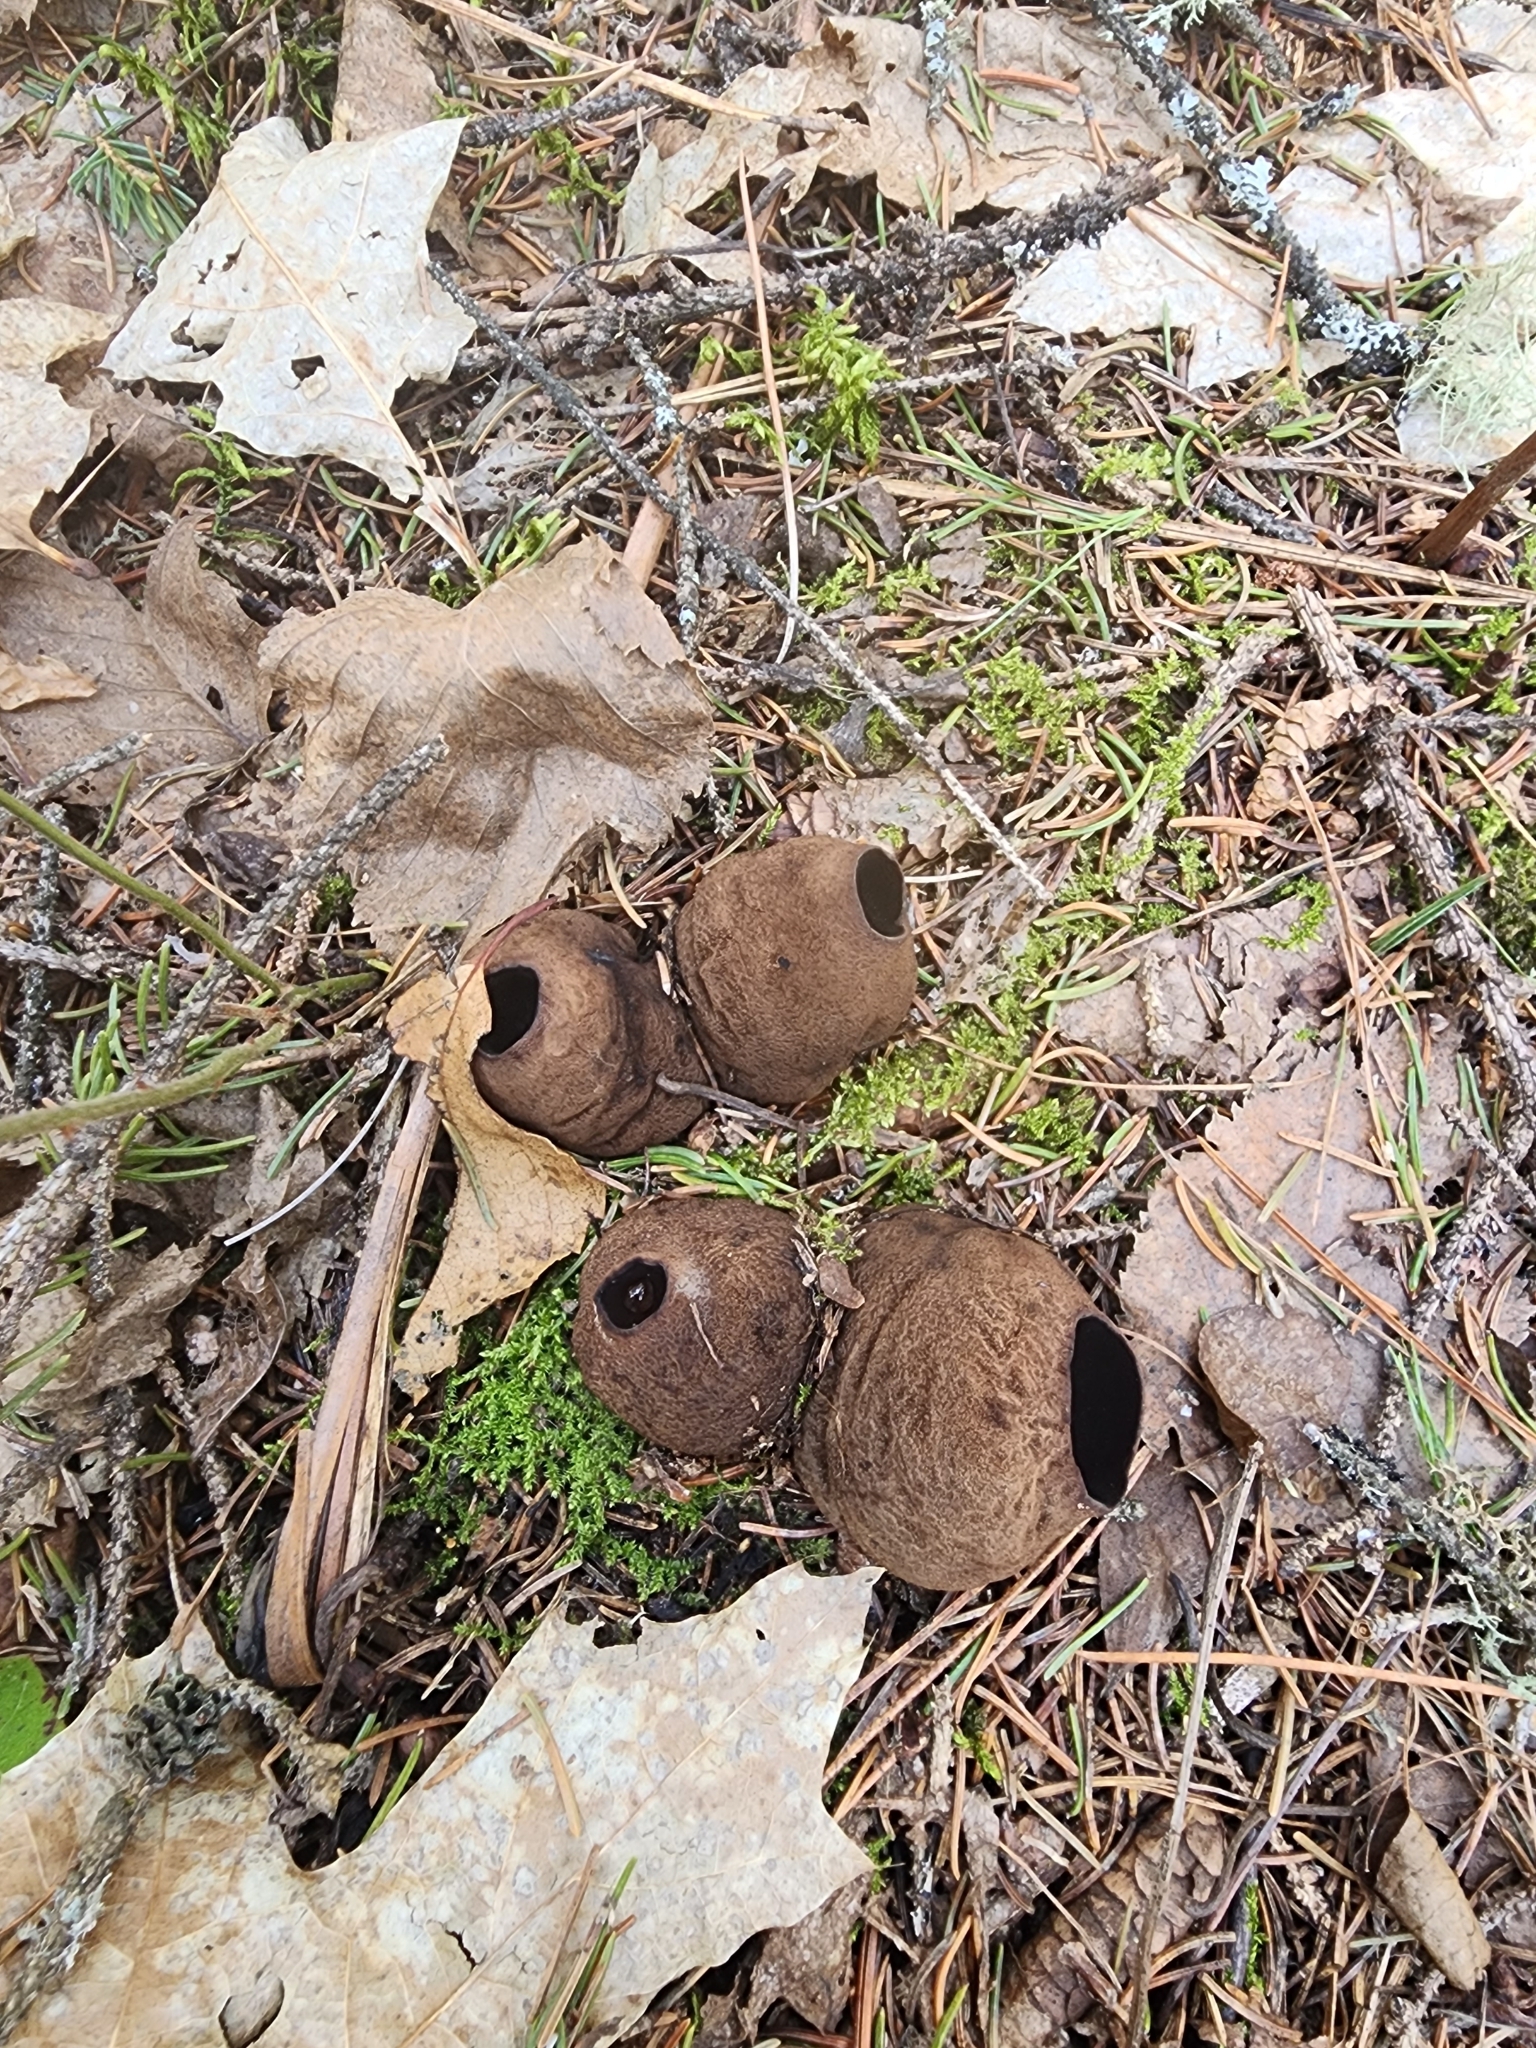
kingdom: Fungi
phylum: Ascomycota
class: Pezizomycetes
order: Pezizales
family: Sarcosomataceae
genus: Sarcosoma
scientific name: Sarcosoma globosum
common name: Charred-pancake cup
